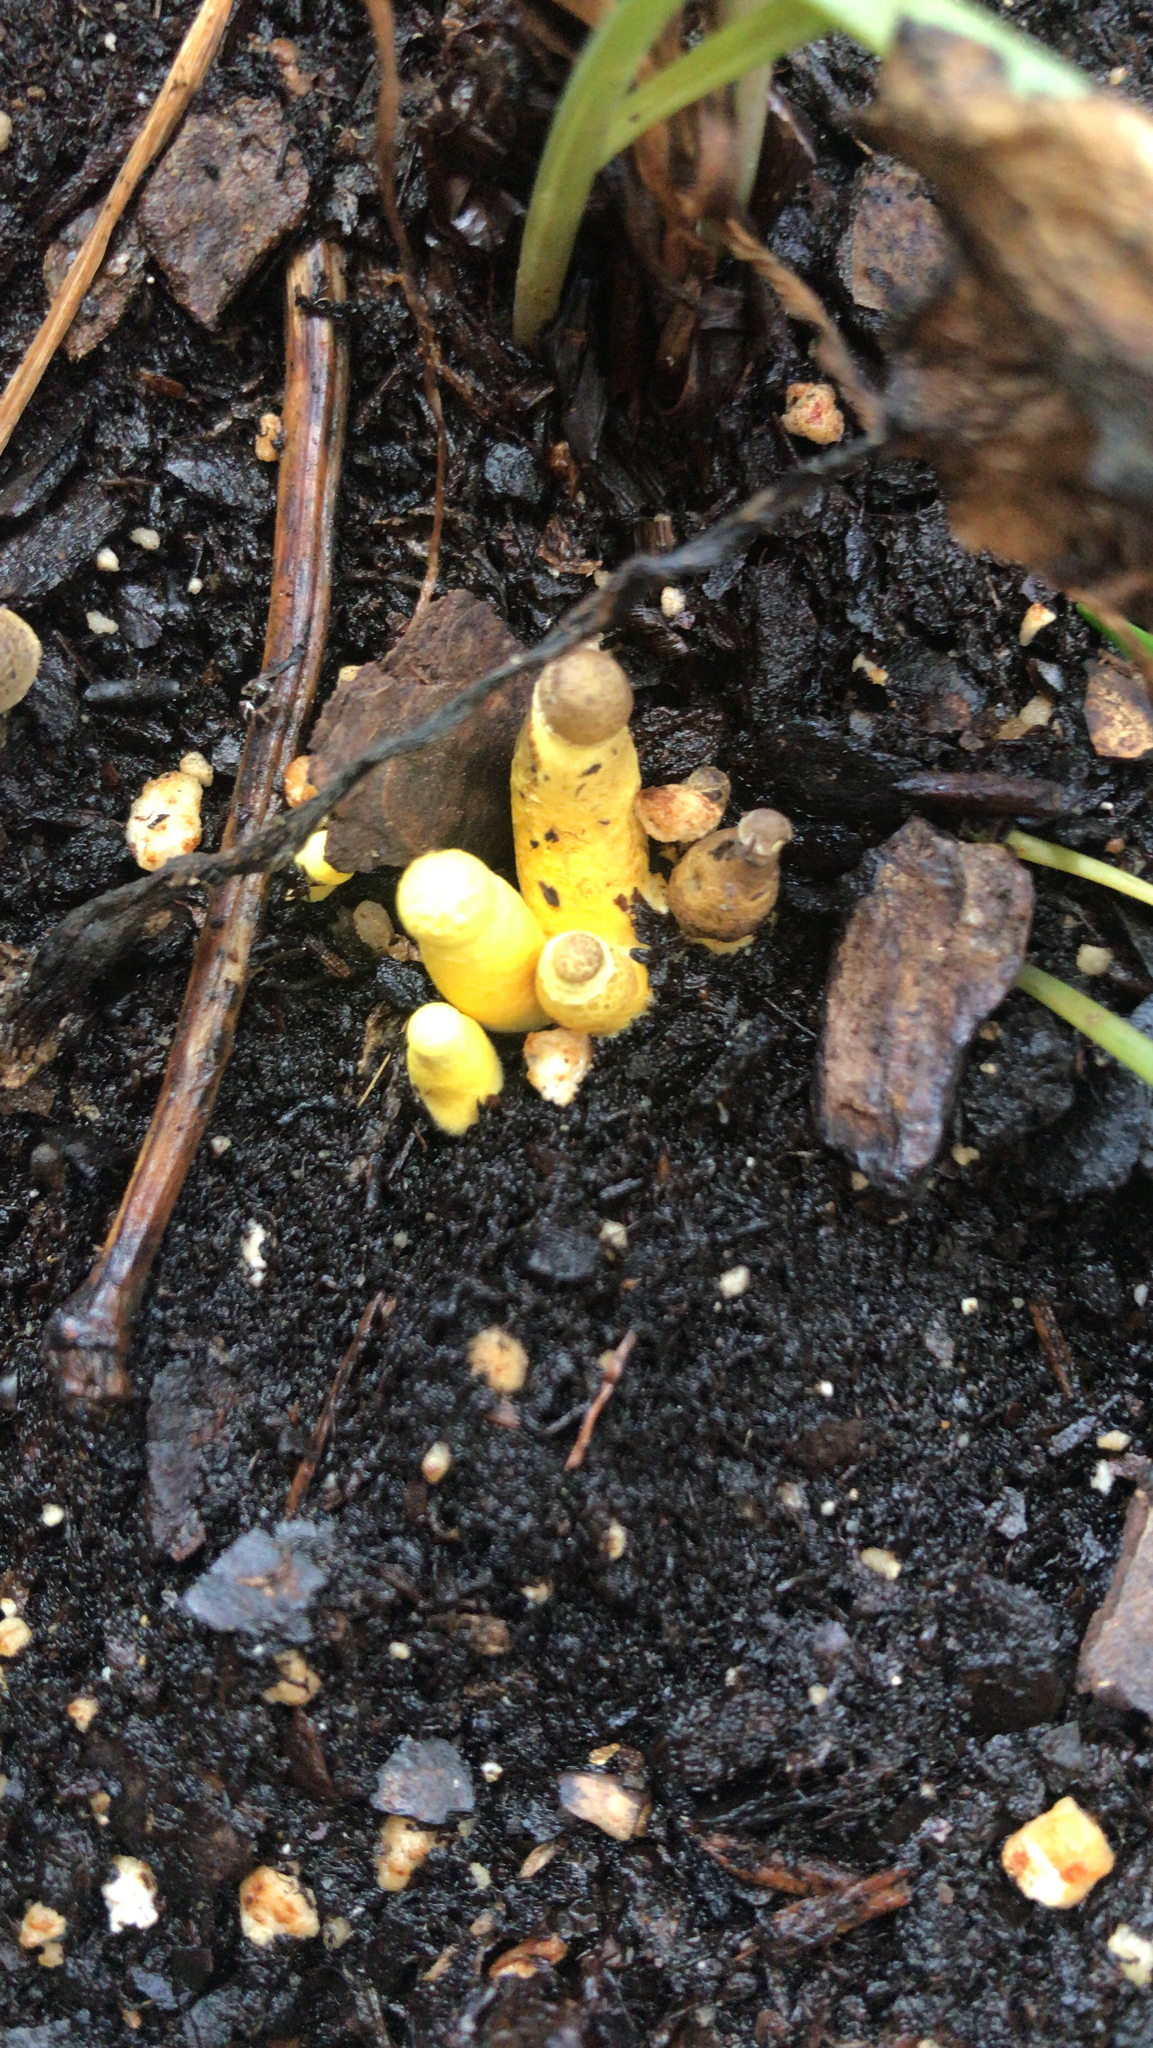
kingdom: Fungi
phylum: Basidiomycota
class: Agaricomycetes
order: Agaricales
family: Agaricaceae
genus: Leucocoprinus
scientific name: Leucocoprinus birnbaumii
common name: Plantpot dapperling
